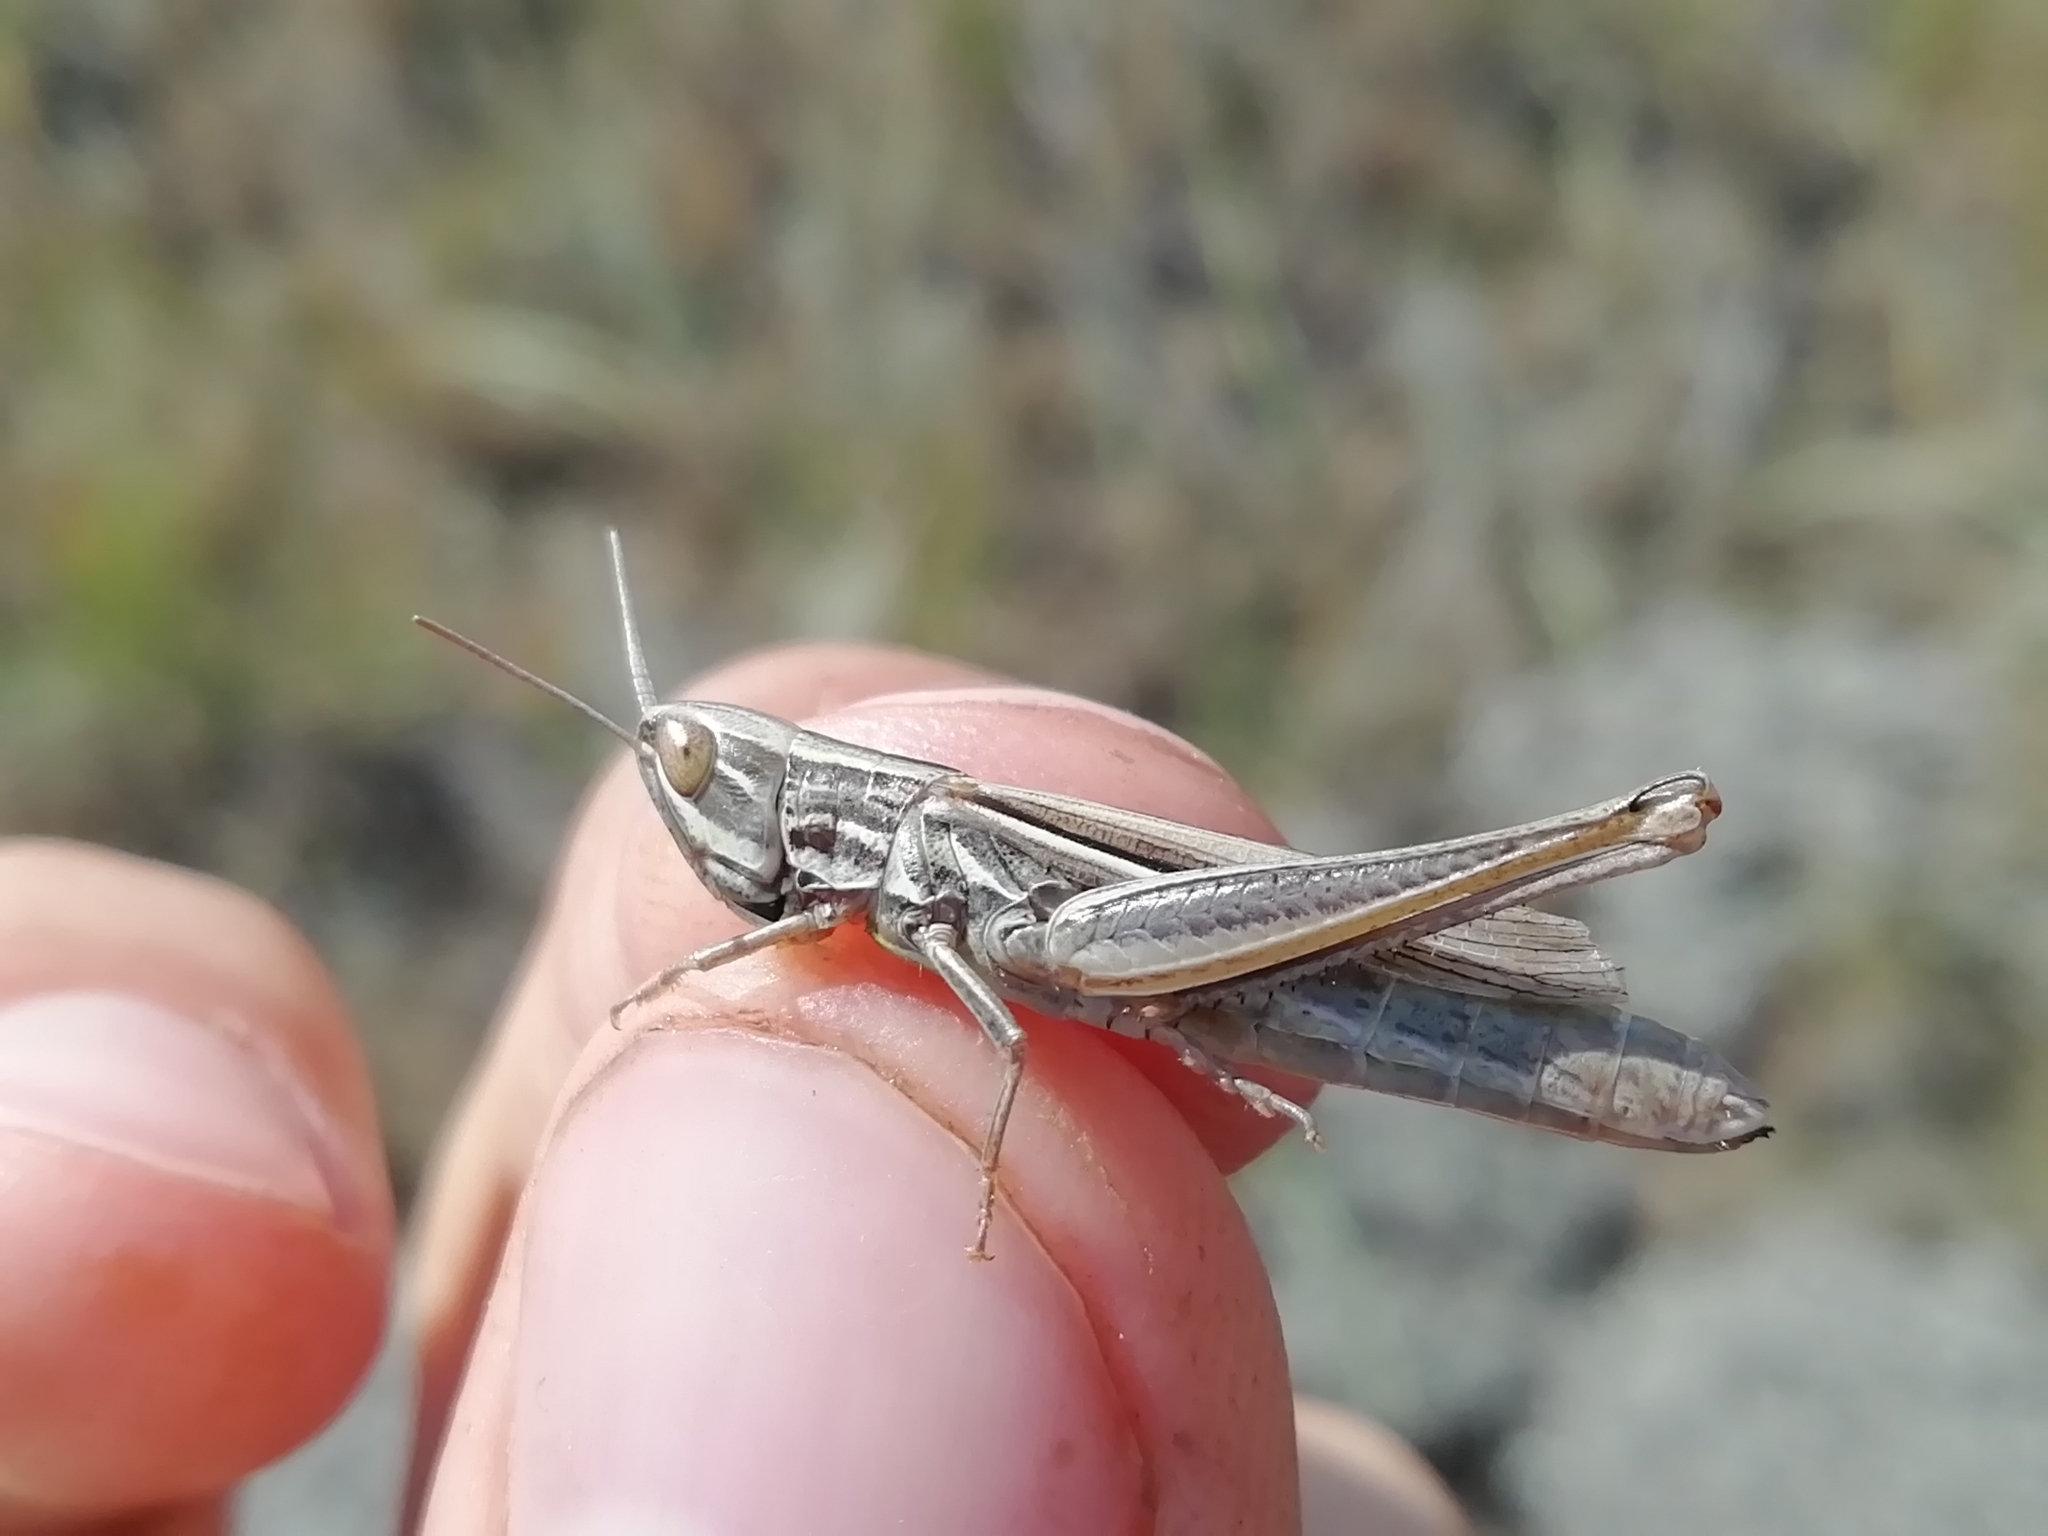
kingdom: Animalia
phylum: Arthropoda
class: Insecta
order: Orthoptera
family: Acrididae
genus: Euchorthippus
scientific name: Euchorthippus pulvinatus
